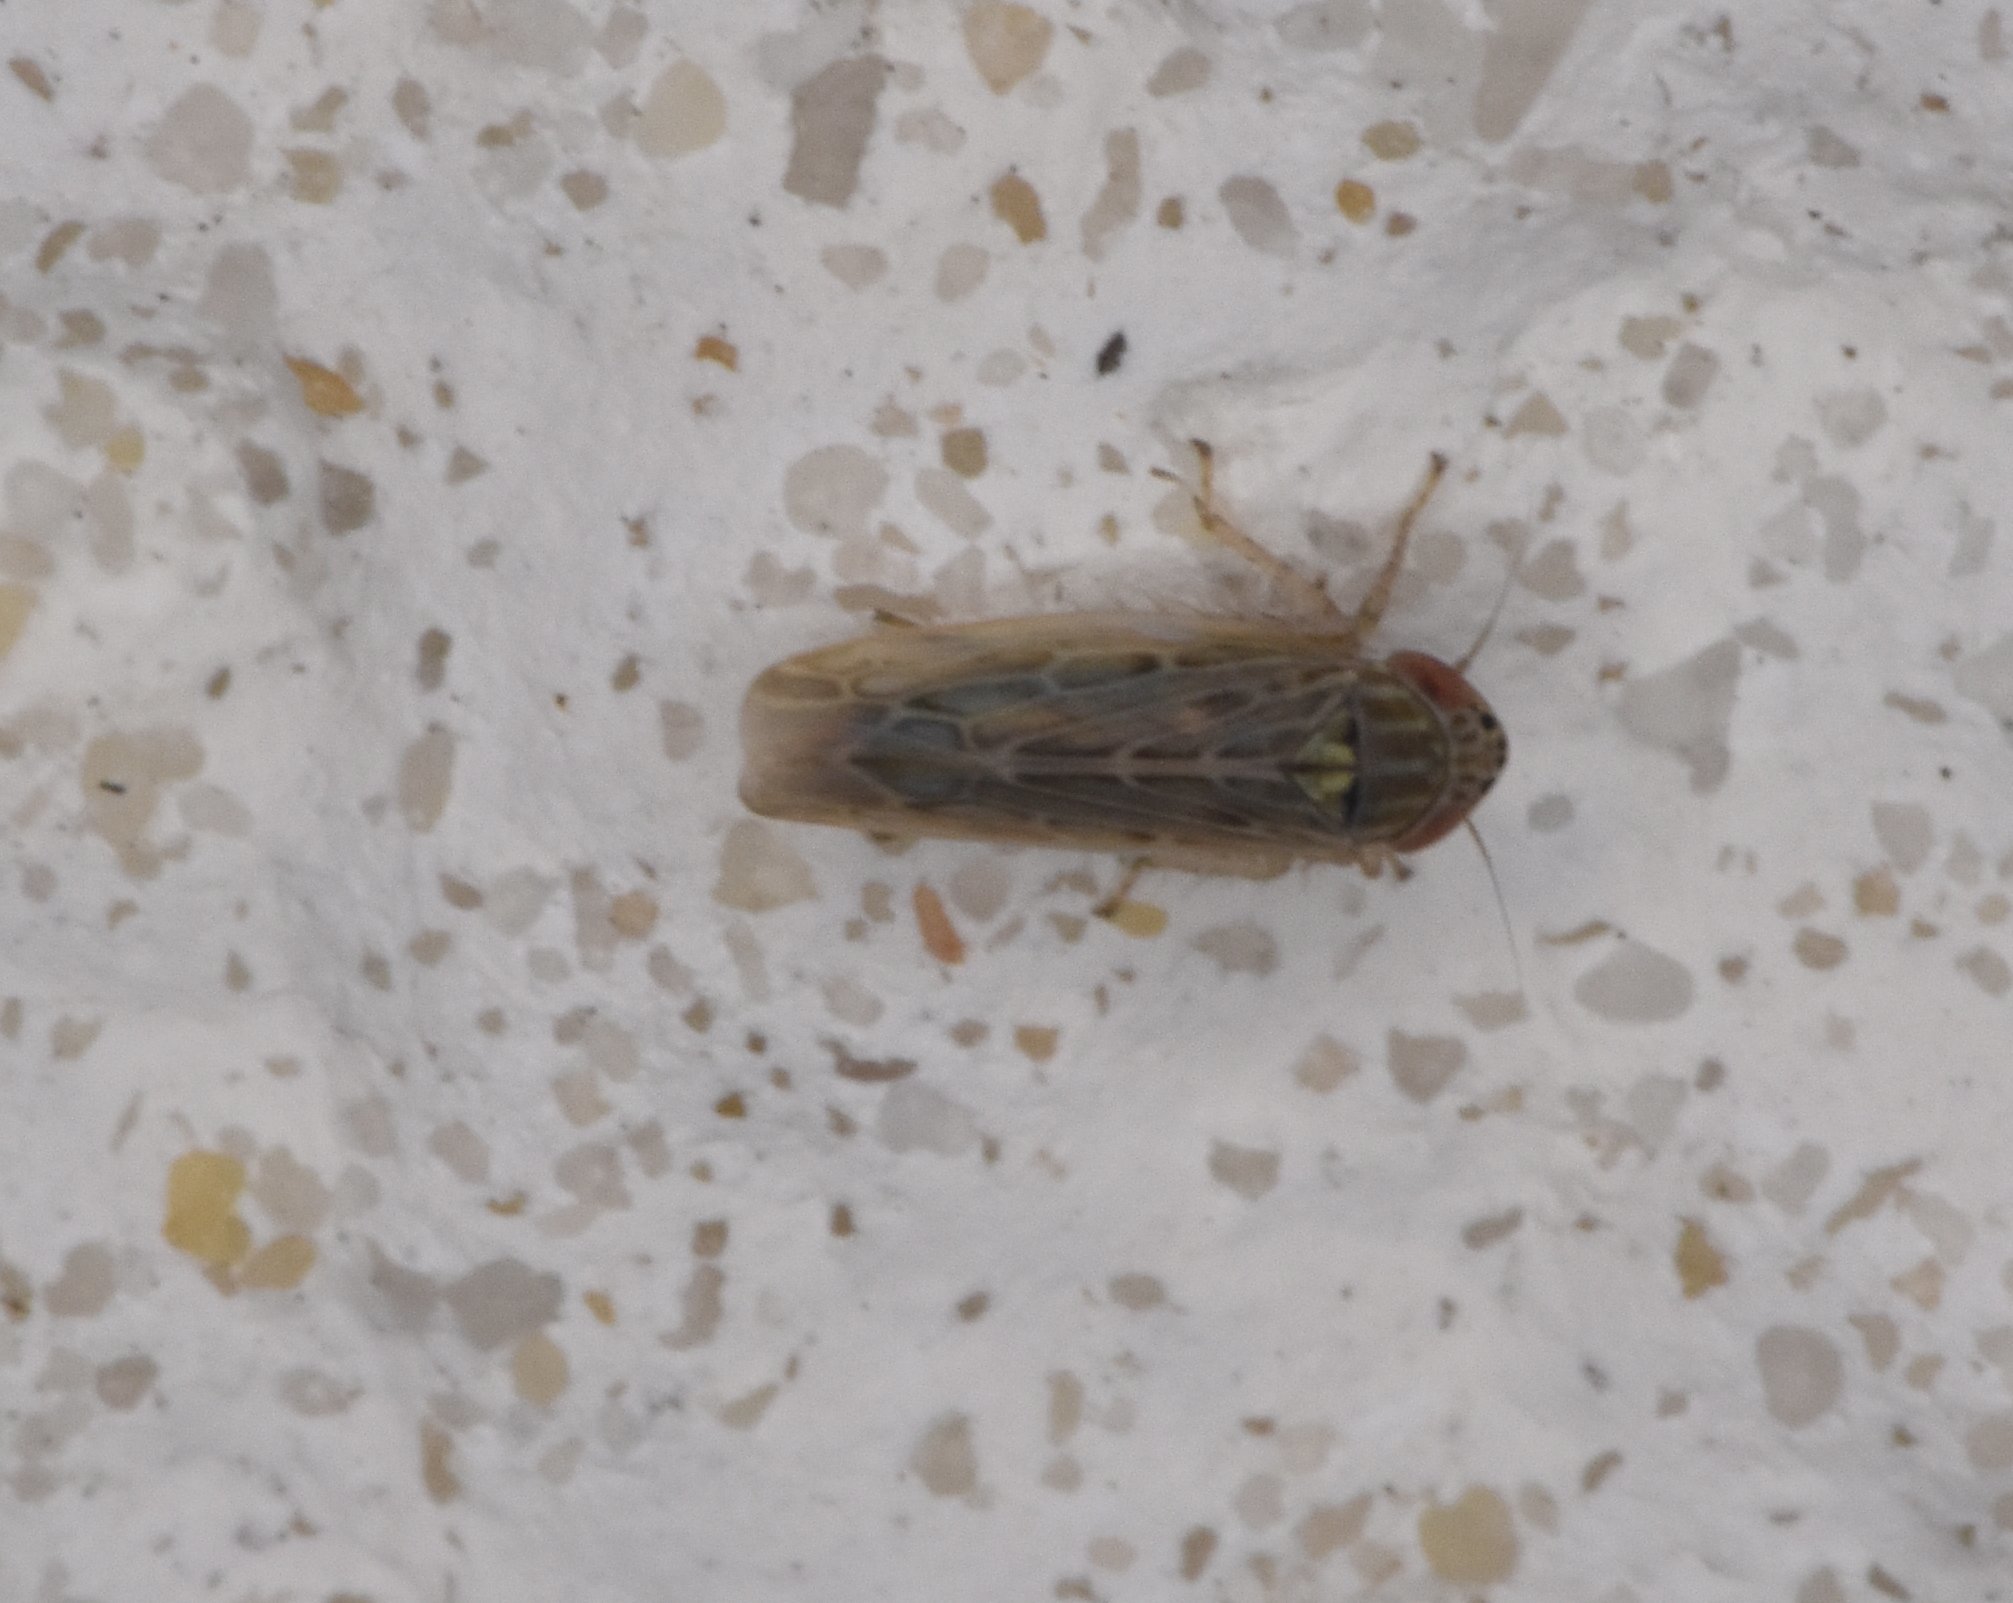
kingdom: Animalia
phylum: Arthropoda
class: Insecta
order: Hemiptera
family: Cicadellidae
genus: Graminella
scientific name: Graminella sonora
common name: Lesser lawn leafhopper
